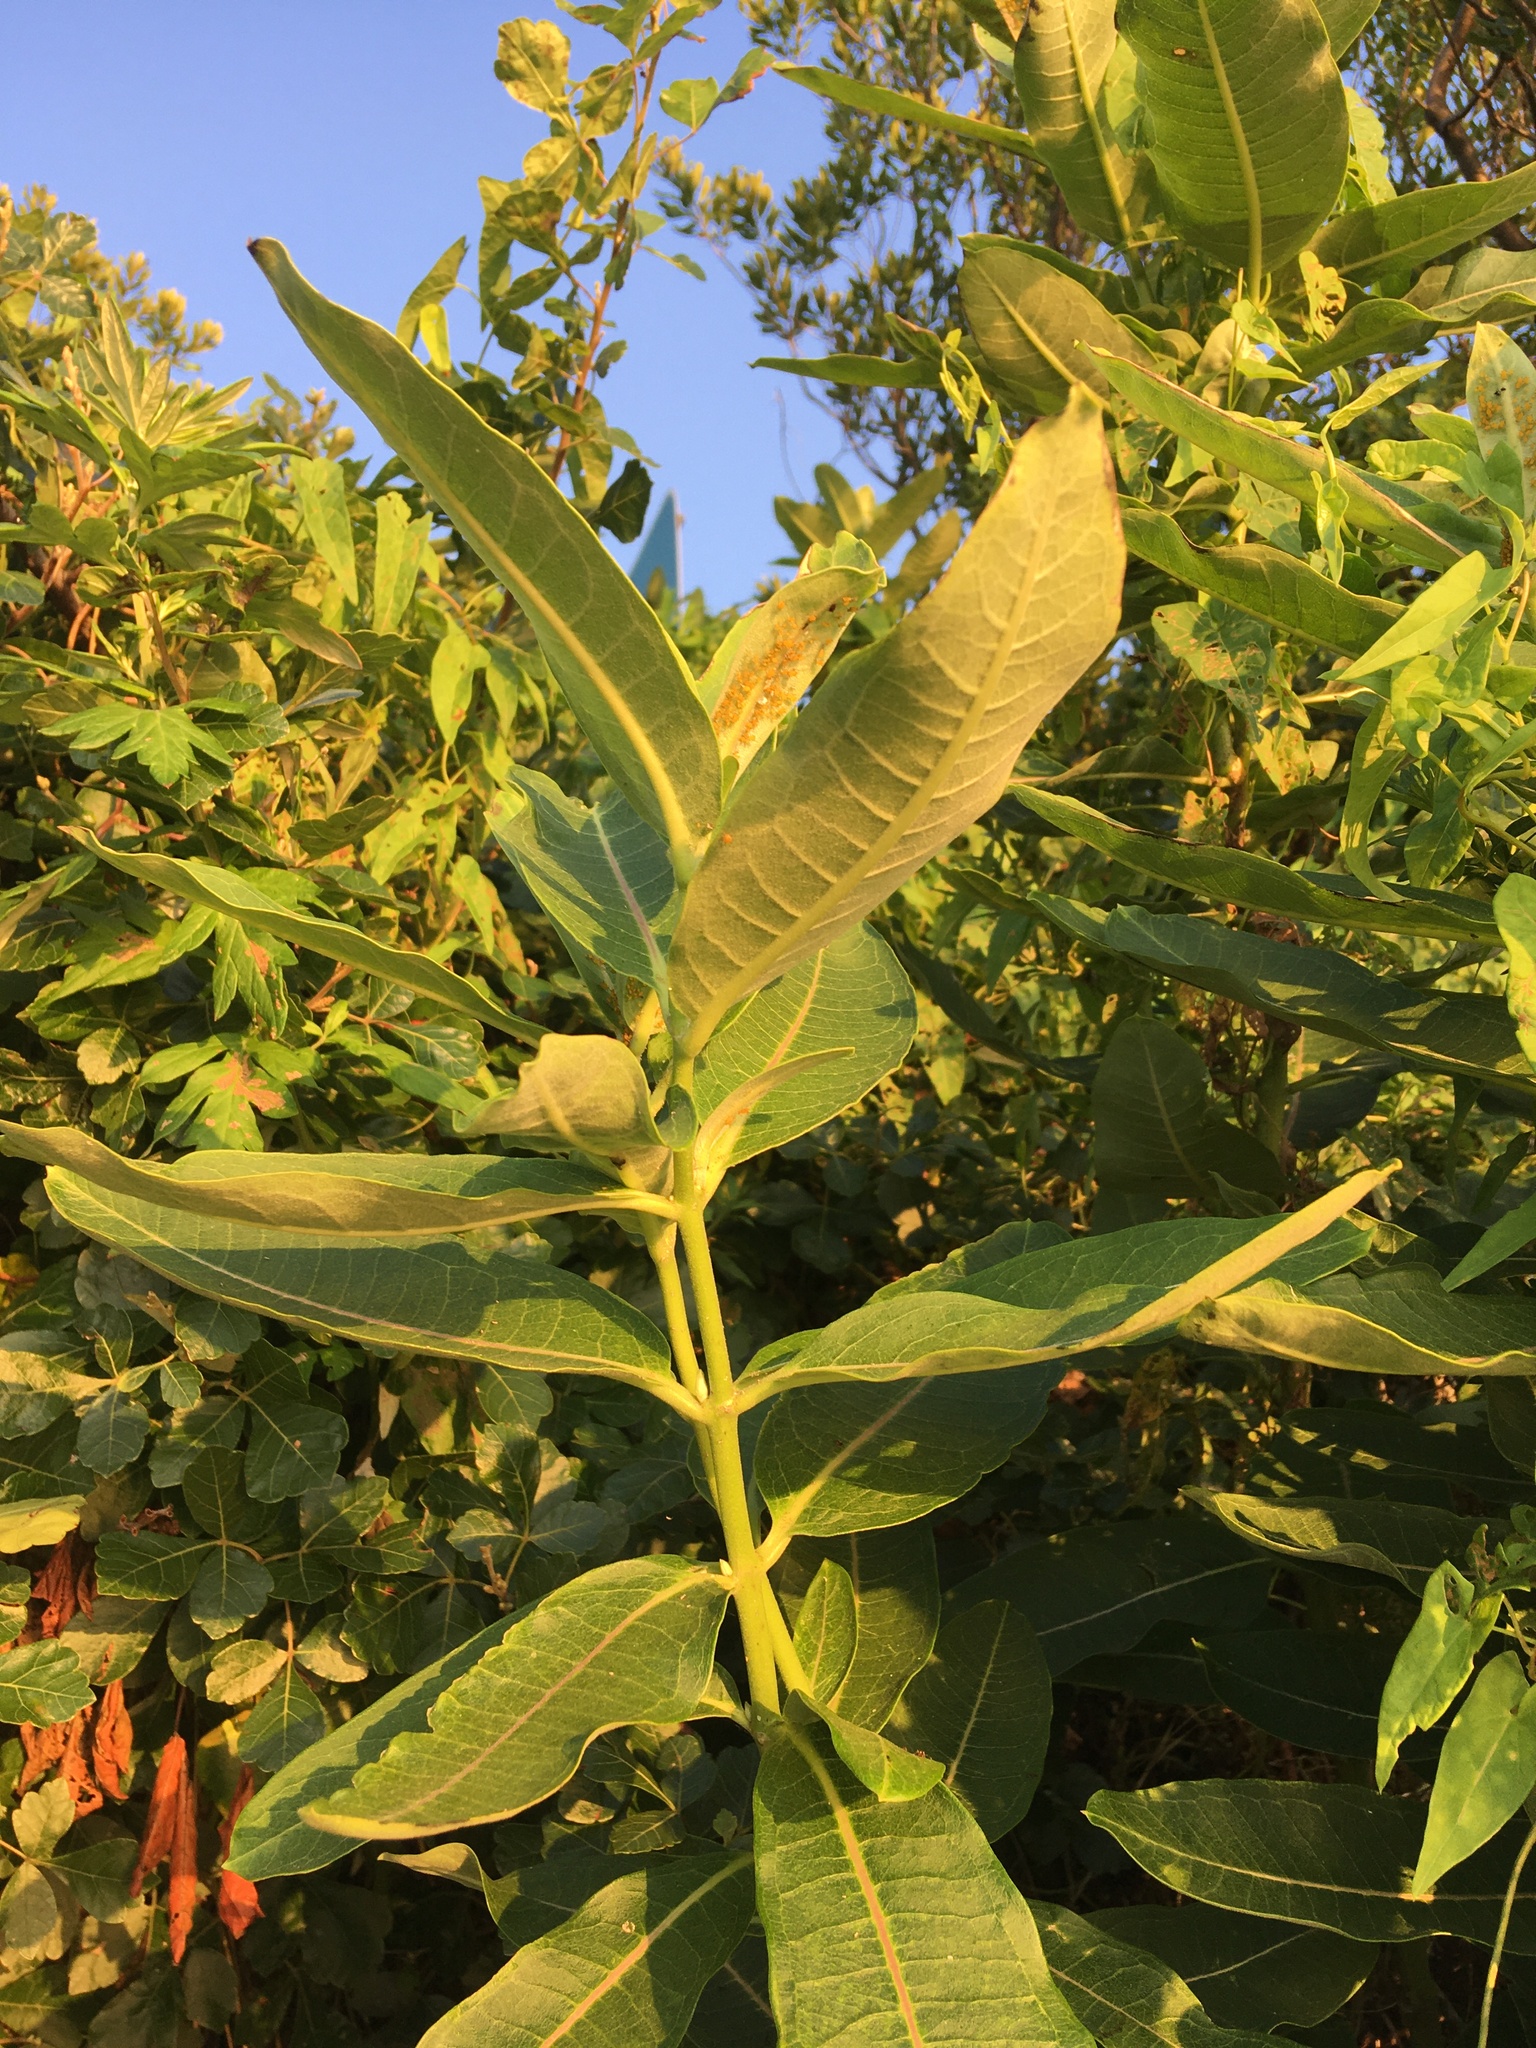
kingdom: Plantae
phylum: Tracheophyta
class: Magnoliopsida
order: Gentianales
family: Apocynaceae
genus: Asclepias
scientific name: Asclepias syriaca
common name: Common milkweed
